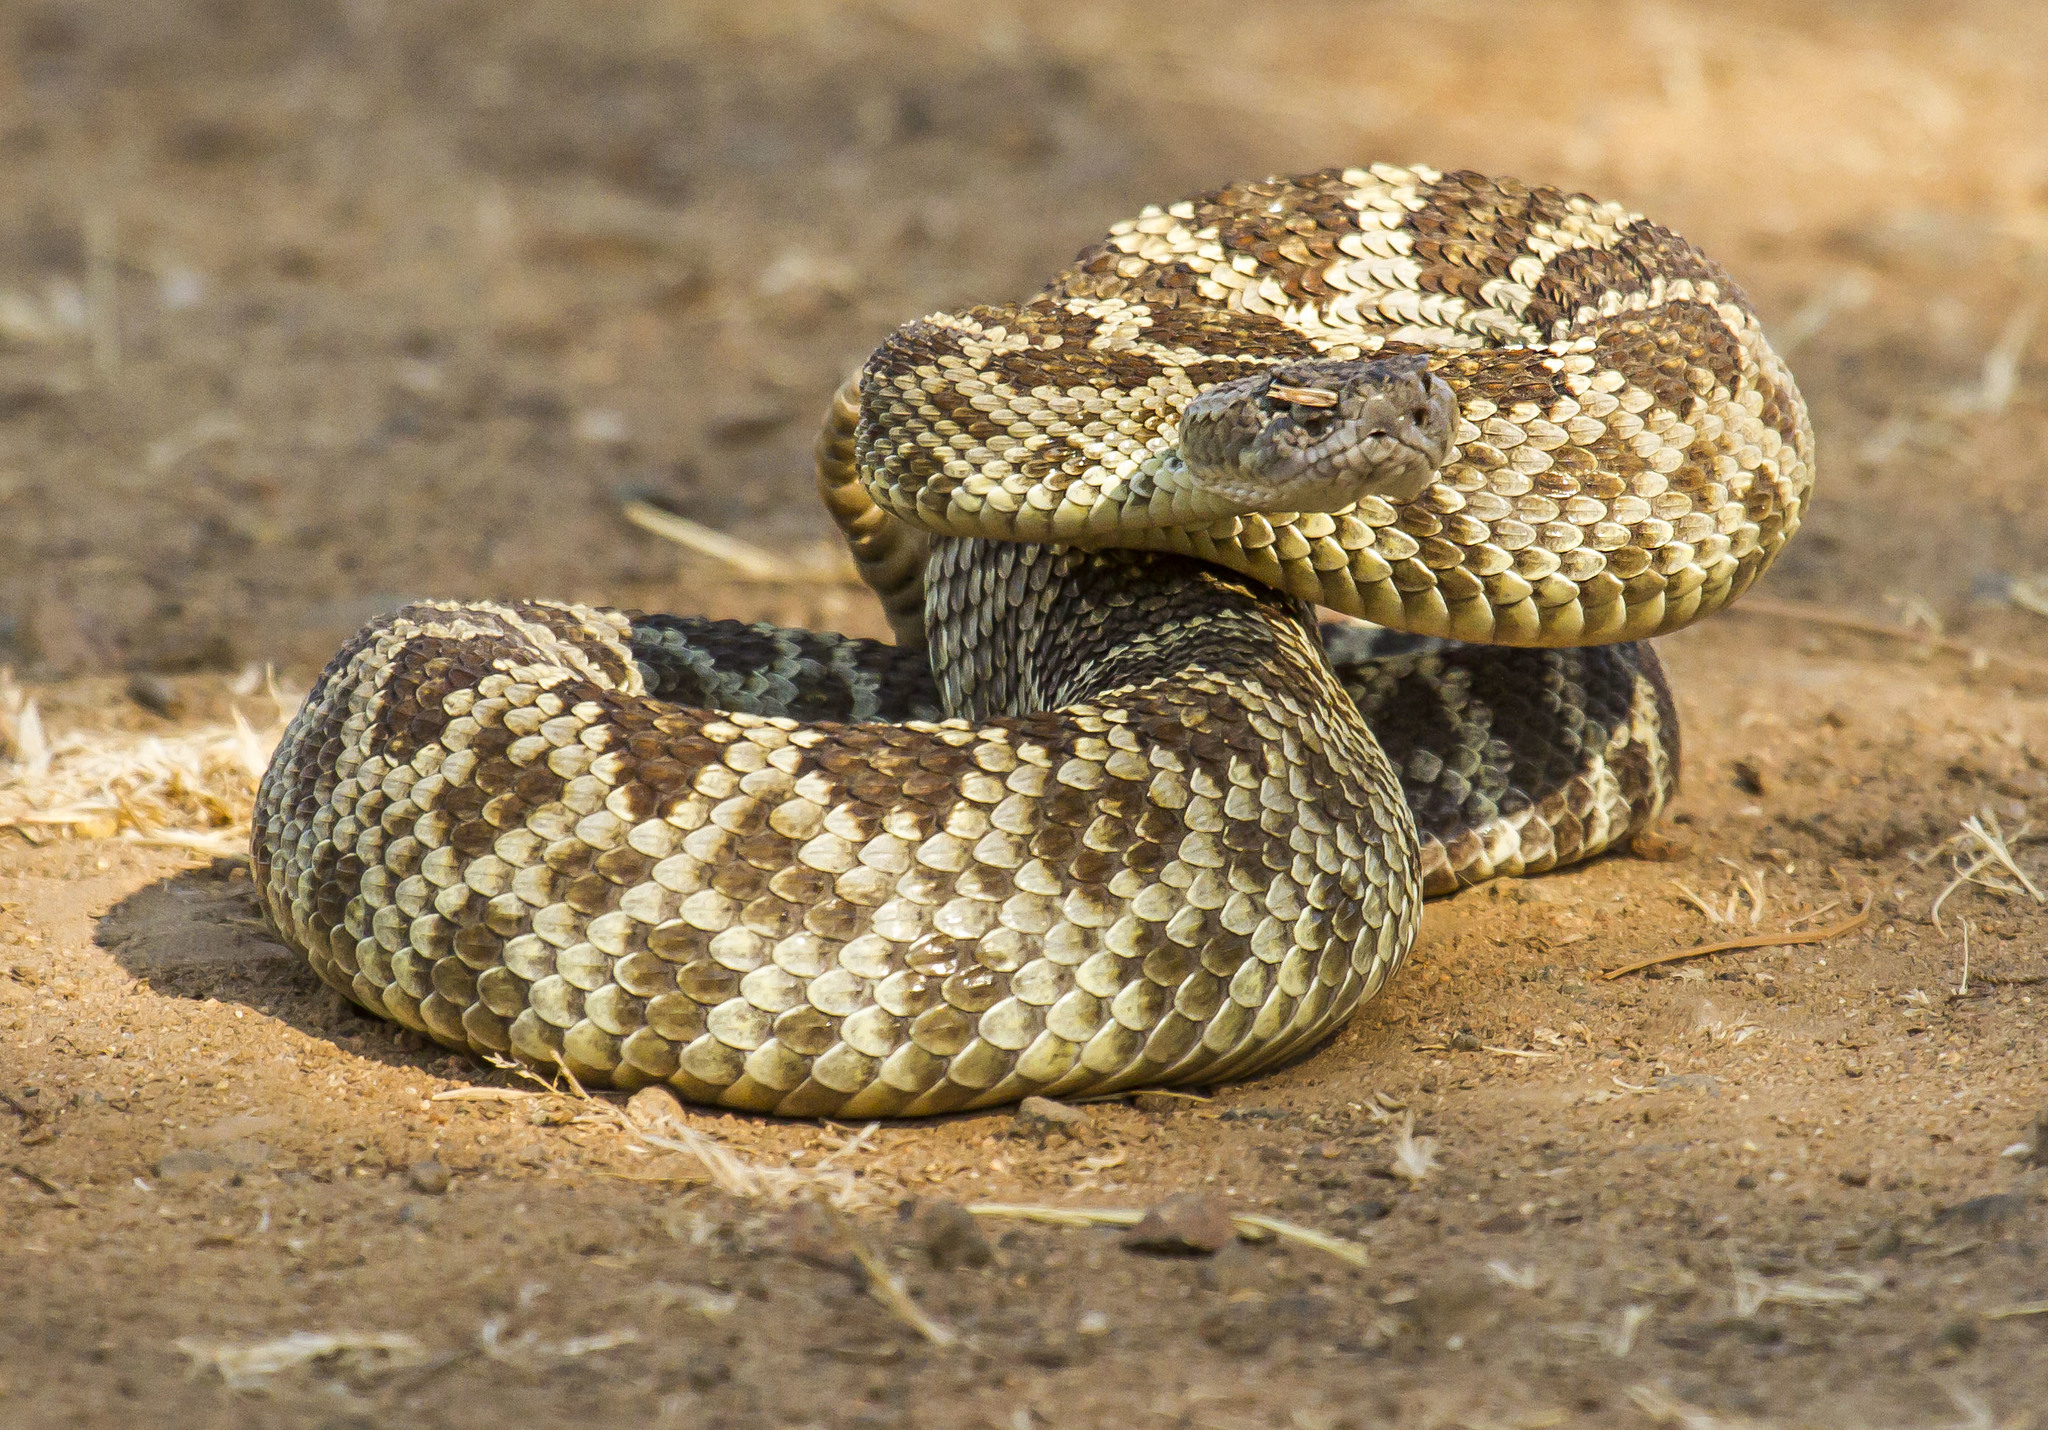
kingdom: Animalia
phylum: Chordata
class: Squamata
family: Viperidae
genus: Crotalus
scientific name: Crotalus oreganus
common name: Abyssus
